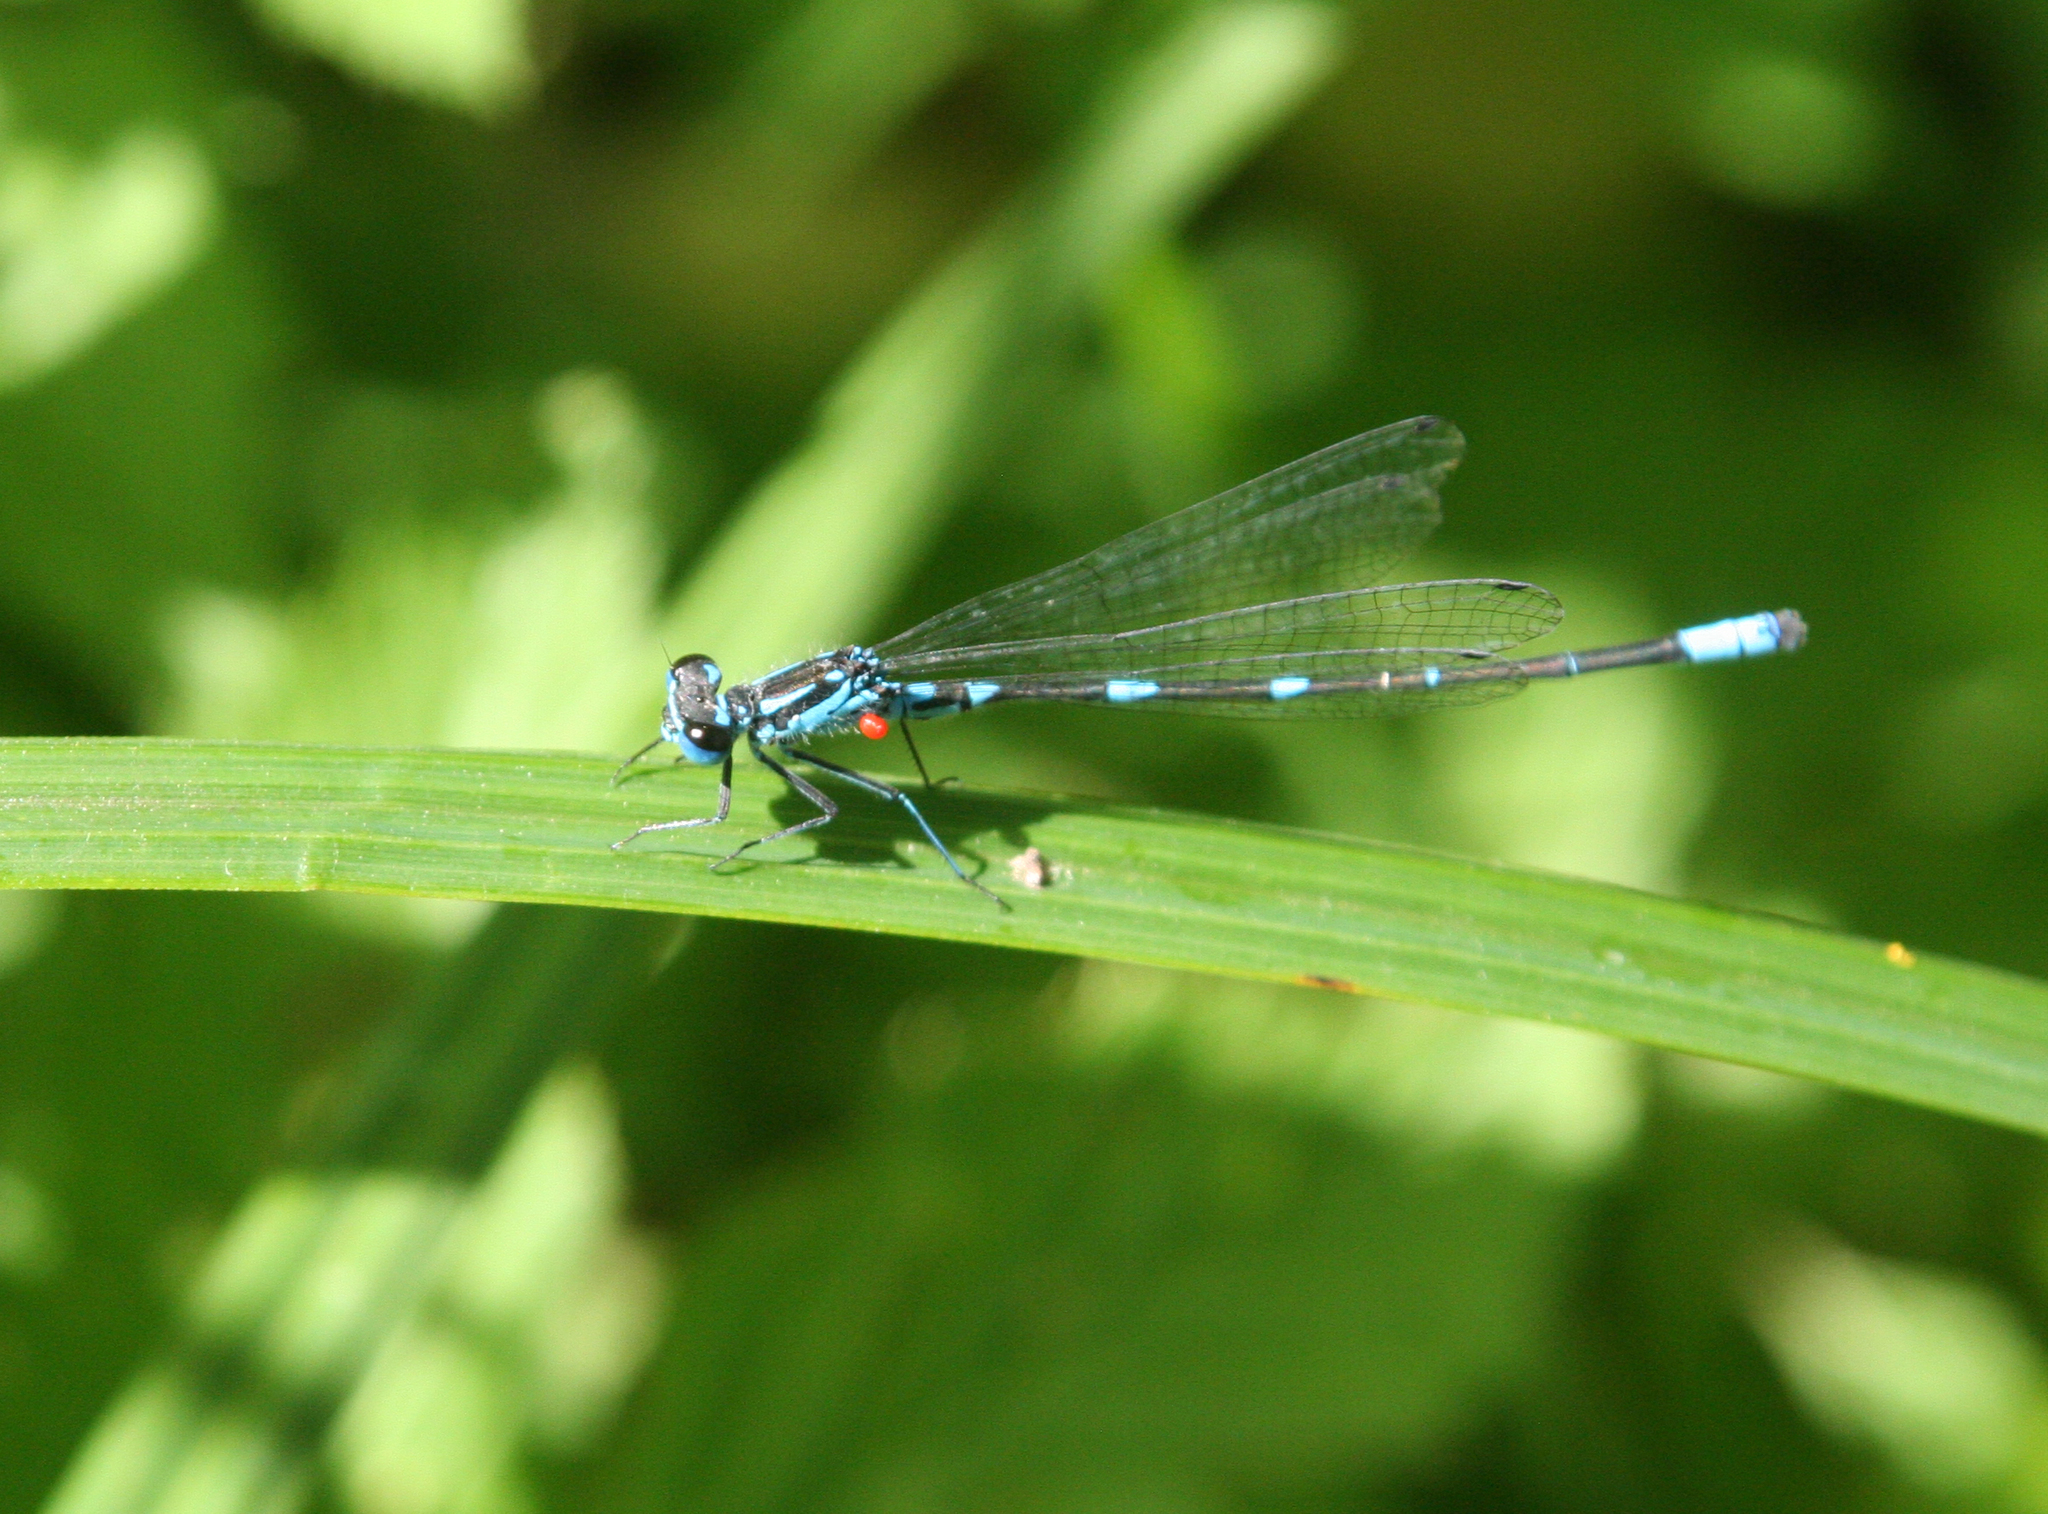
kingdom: Animalia
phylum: Arthropoda
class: Insecta
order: Odonata
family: Coenagrionidae
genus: Coenagrion
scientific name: Coenagrion pulchellum
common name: Variable bluet
